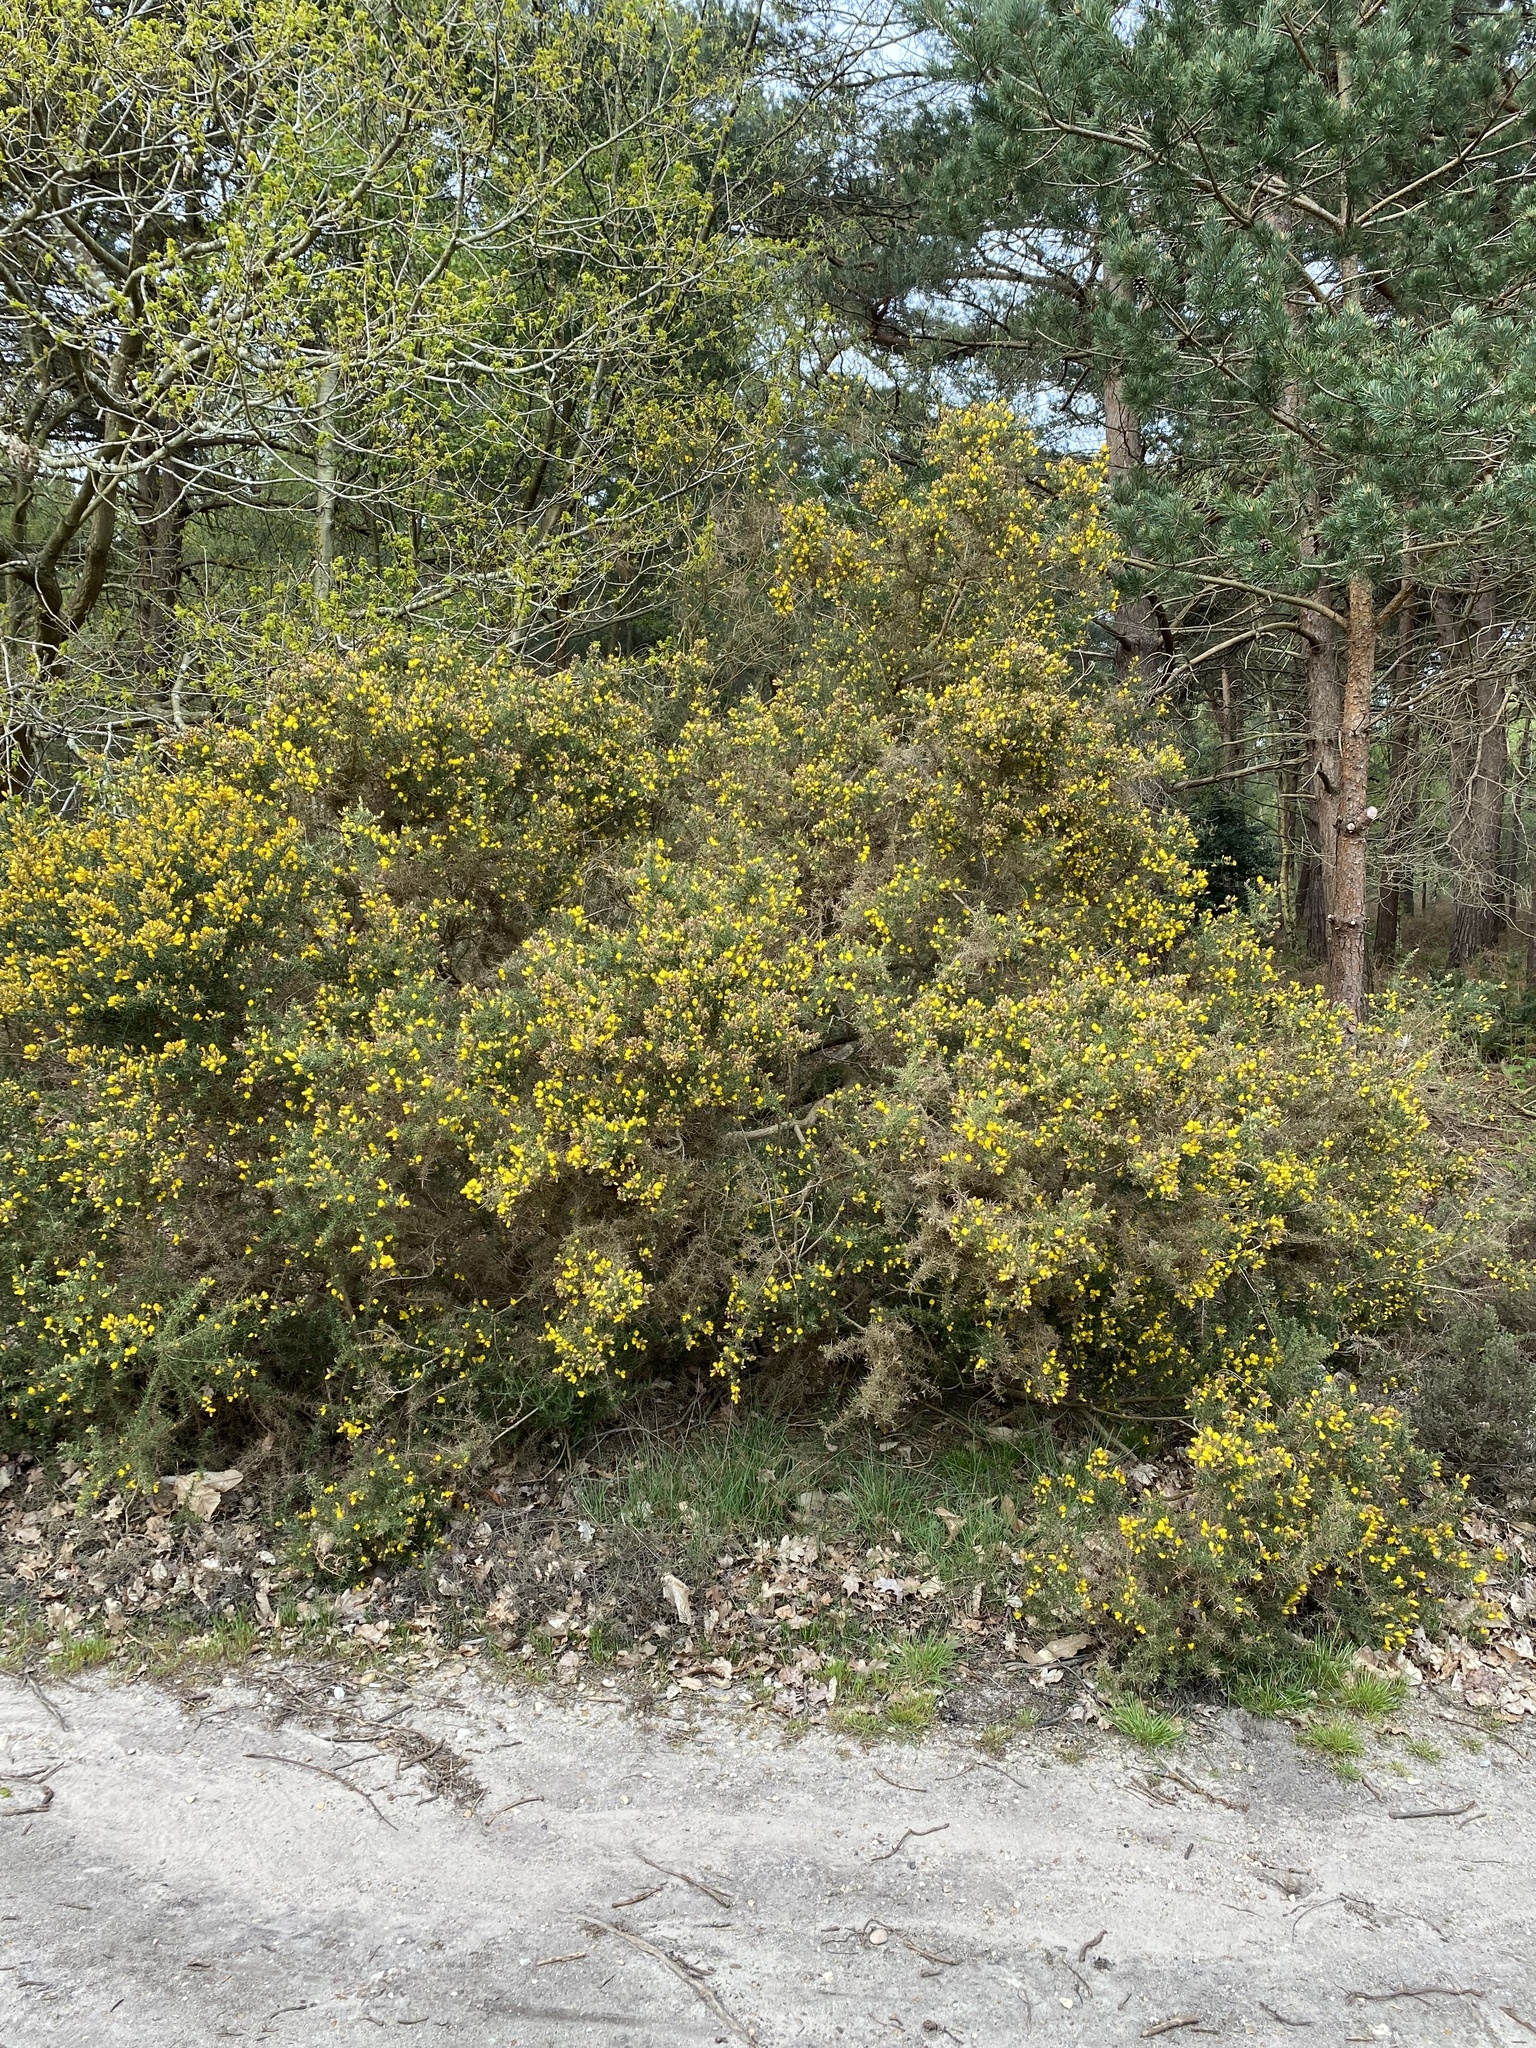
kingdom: Plantae
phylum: Tracheophyta
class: Magnoliopsida
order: Fabales
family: Fabaceae
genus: Ulex
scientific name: Ulex europaeus
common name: Common gorse
